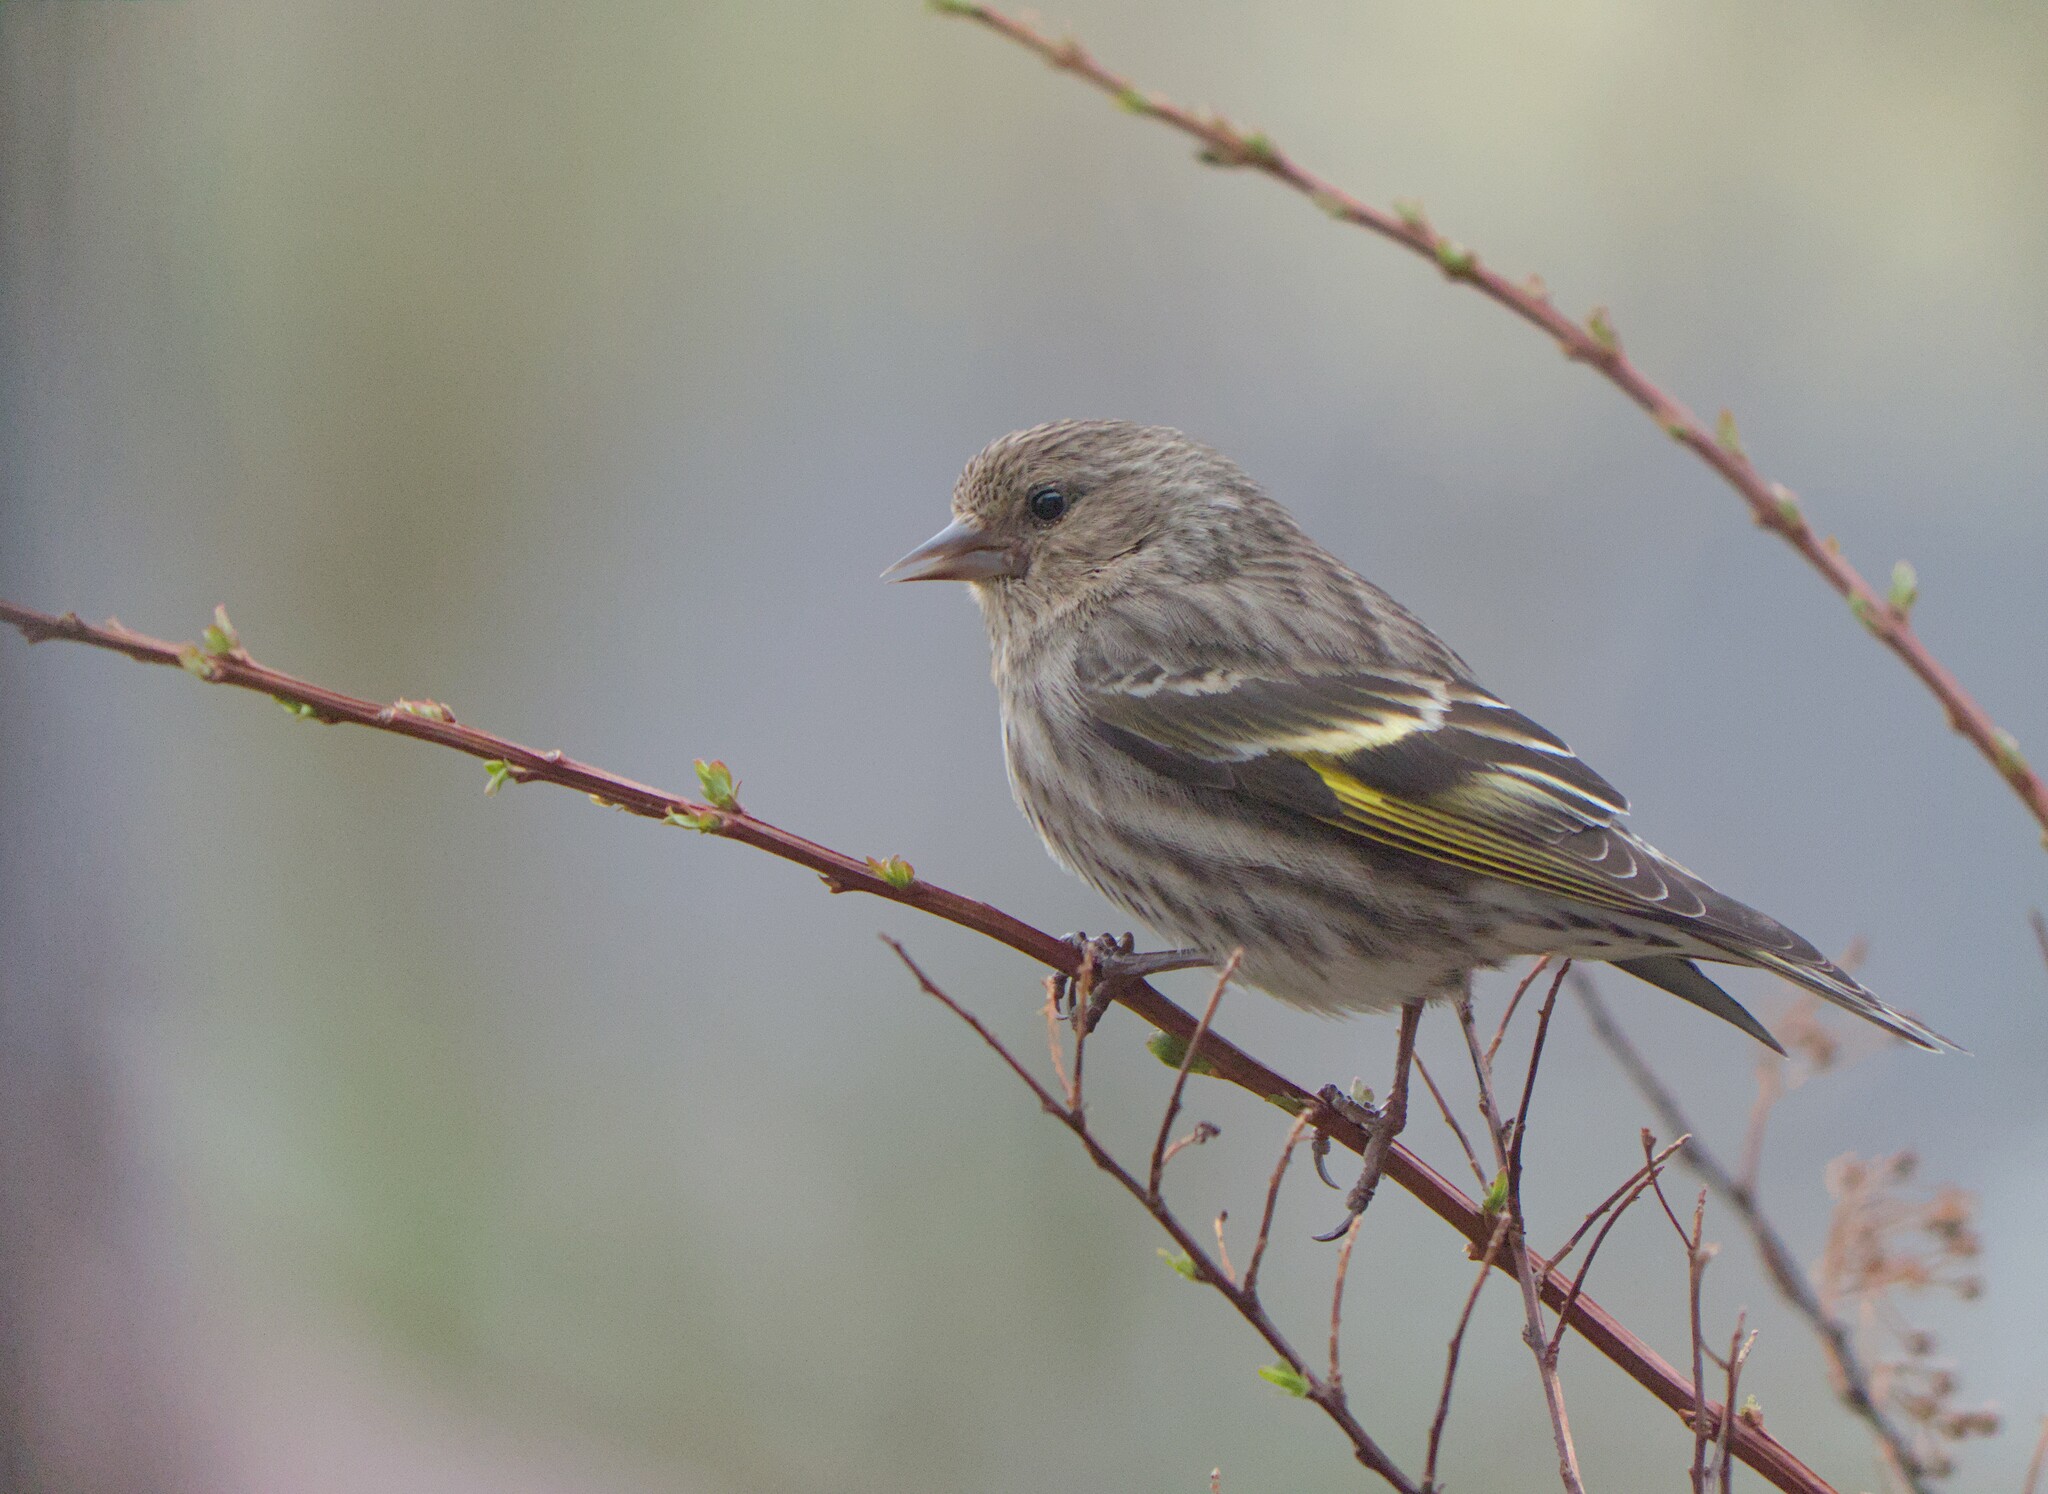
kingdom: Animalia
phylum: Chordata
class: Aves
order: Passeriformes
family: Fringillidae
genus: Spinus
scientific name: Spinus pinus
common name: Pine siskin
